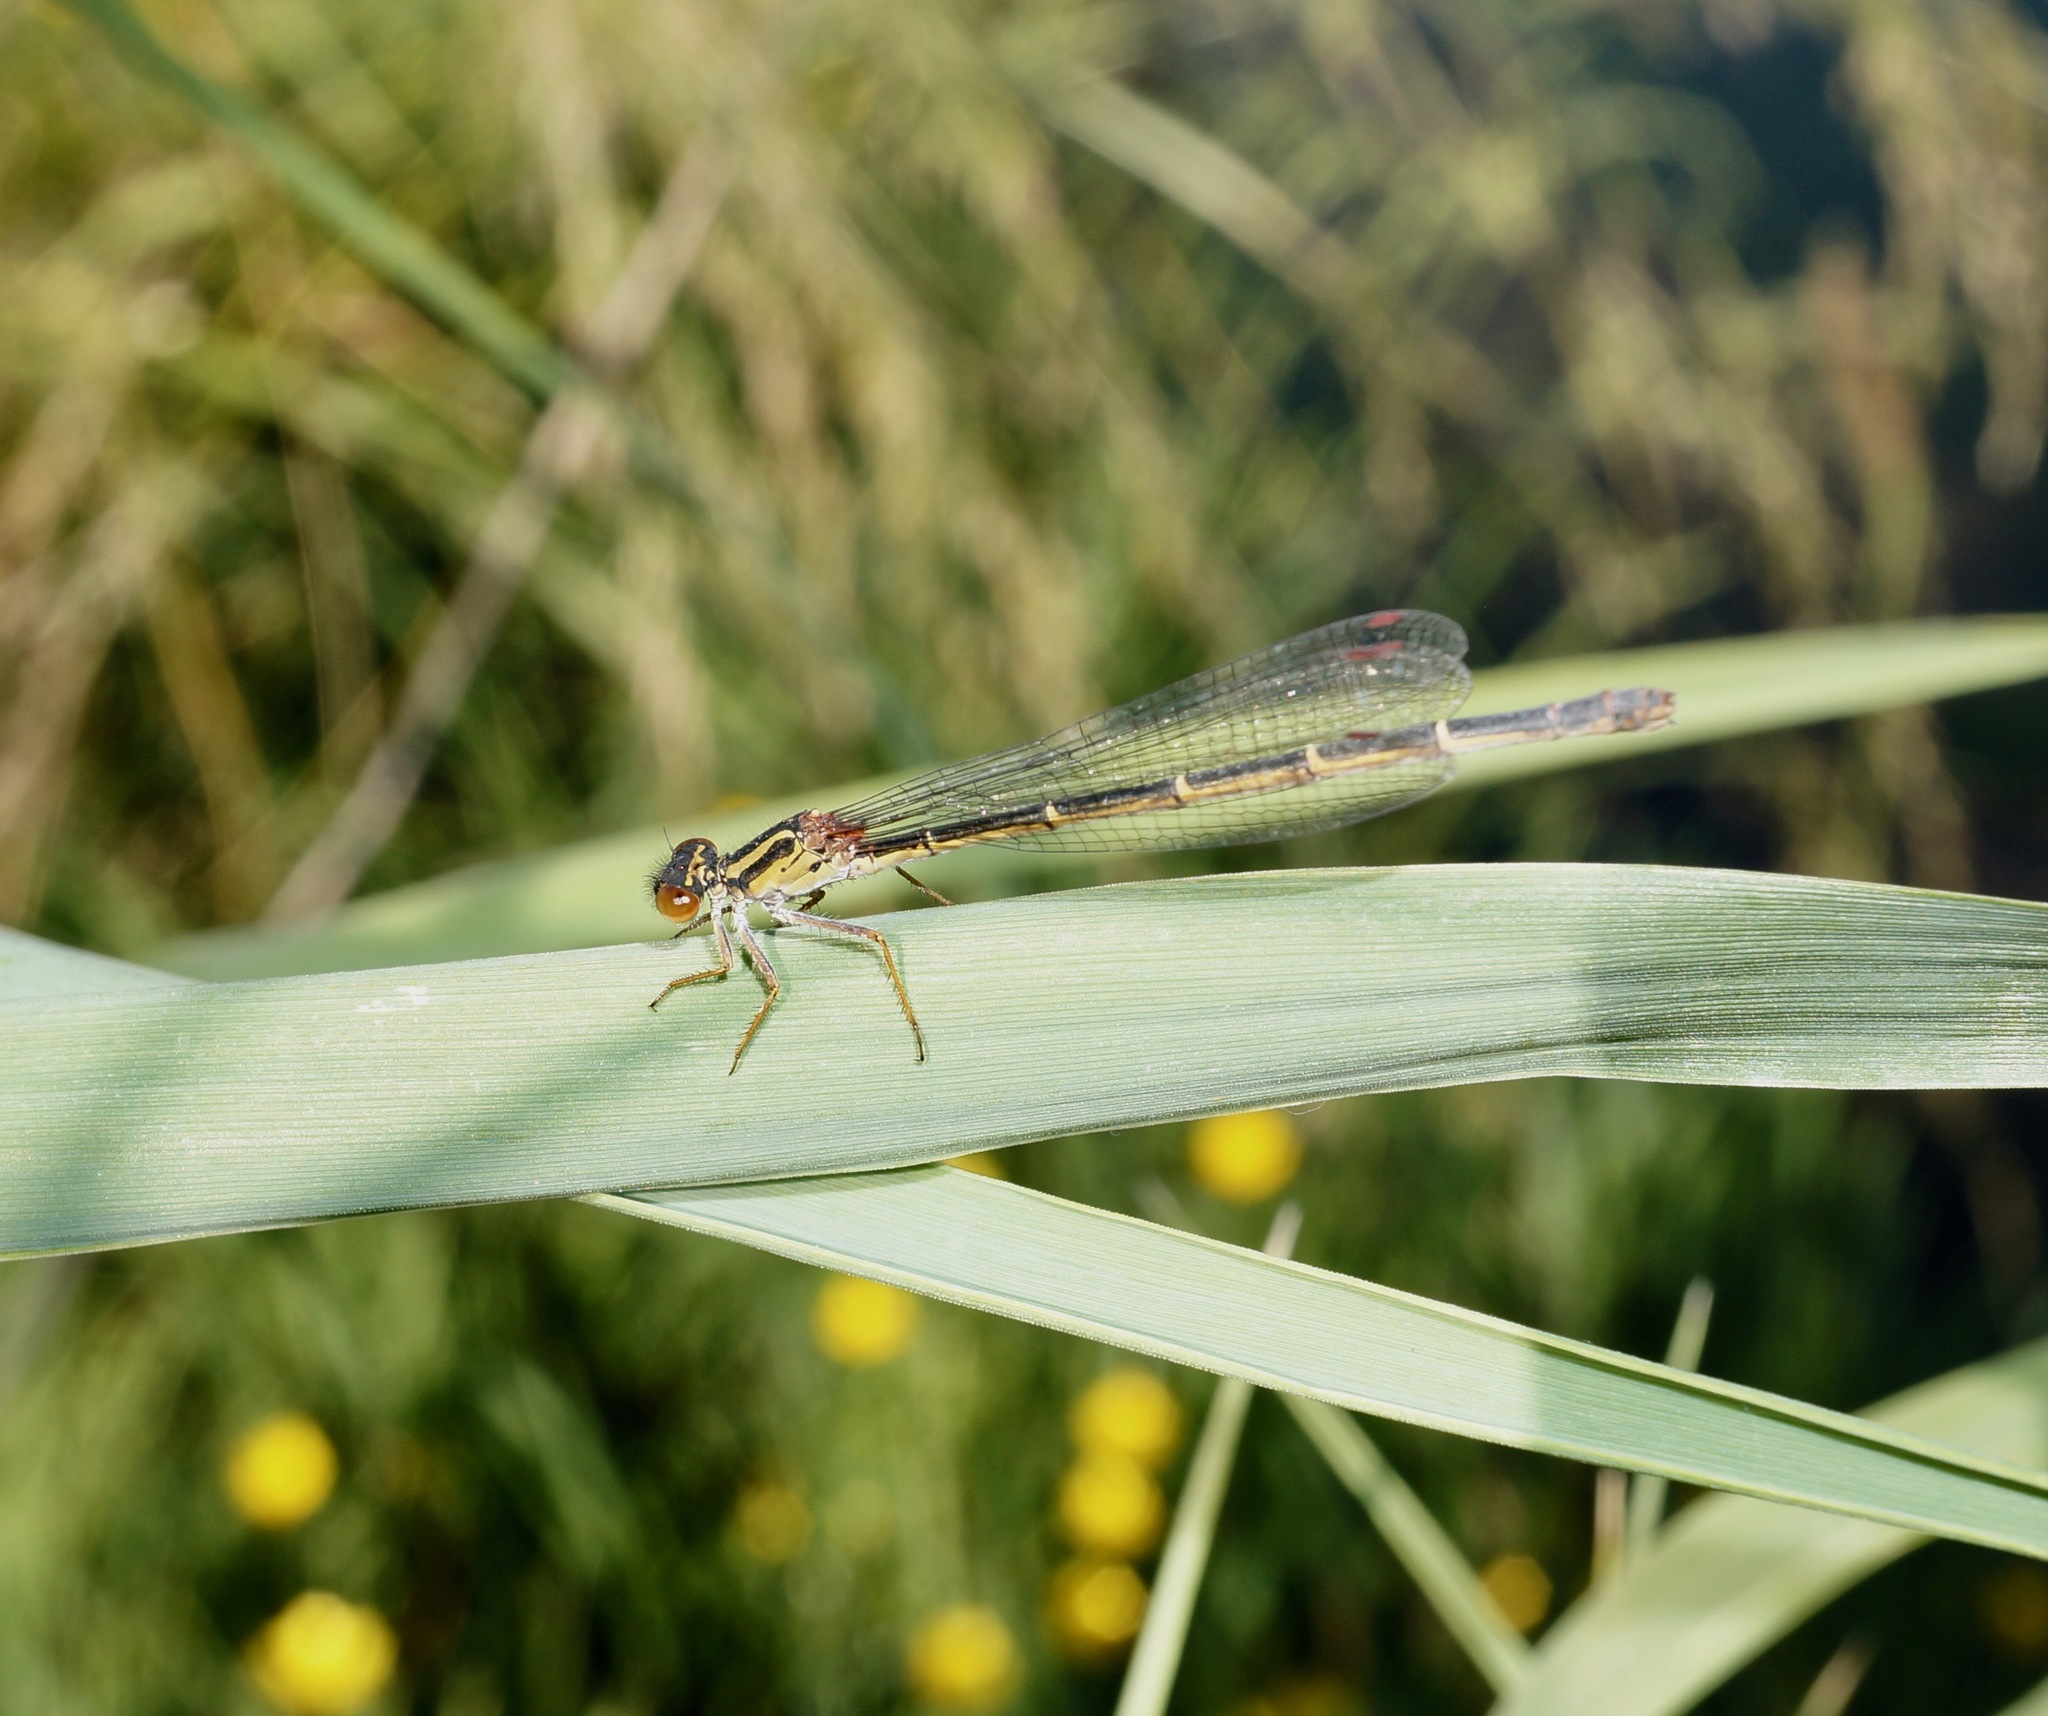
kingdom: Animalia
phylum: Arthropoda
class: Insecta
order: Odonata
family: Coenagrionidae
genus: Xanthocnemis
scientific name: Xanthocnemis zealandica
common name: Common redcoat damselfly
